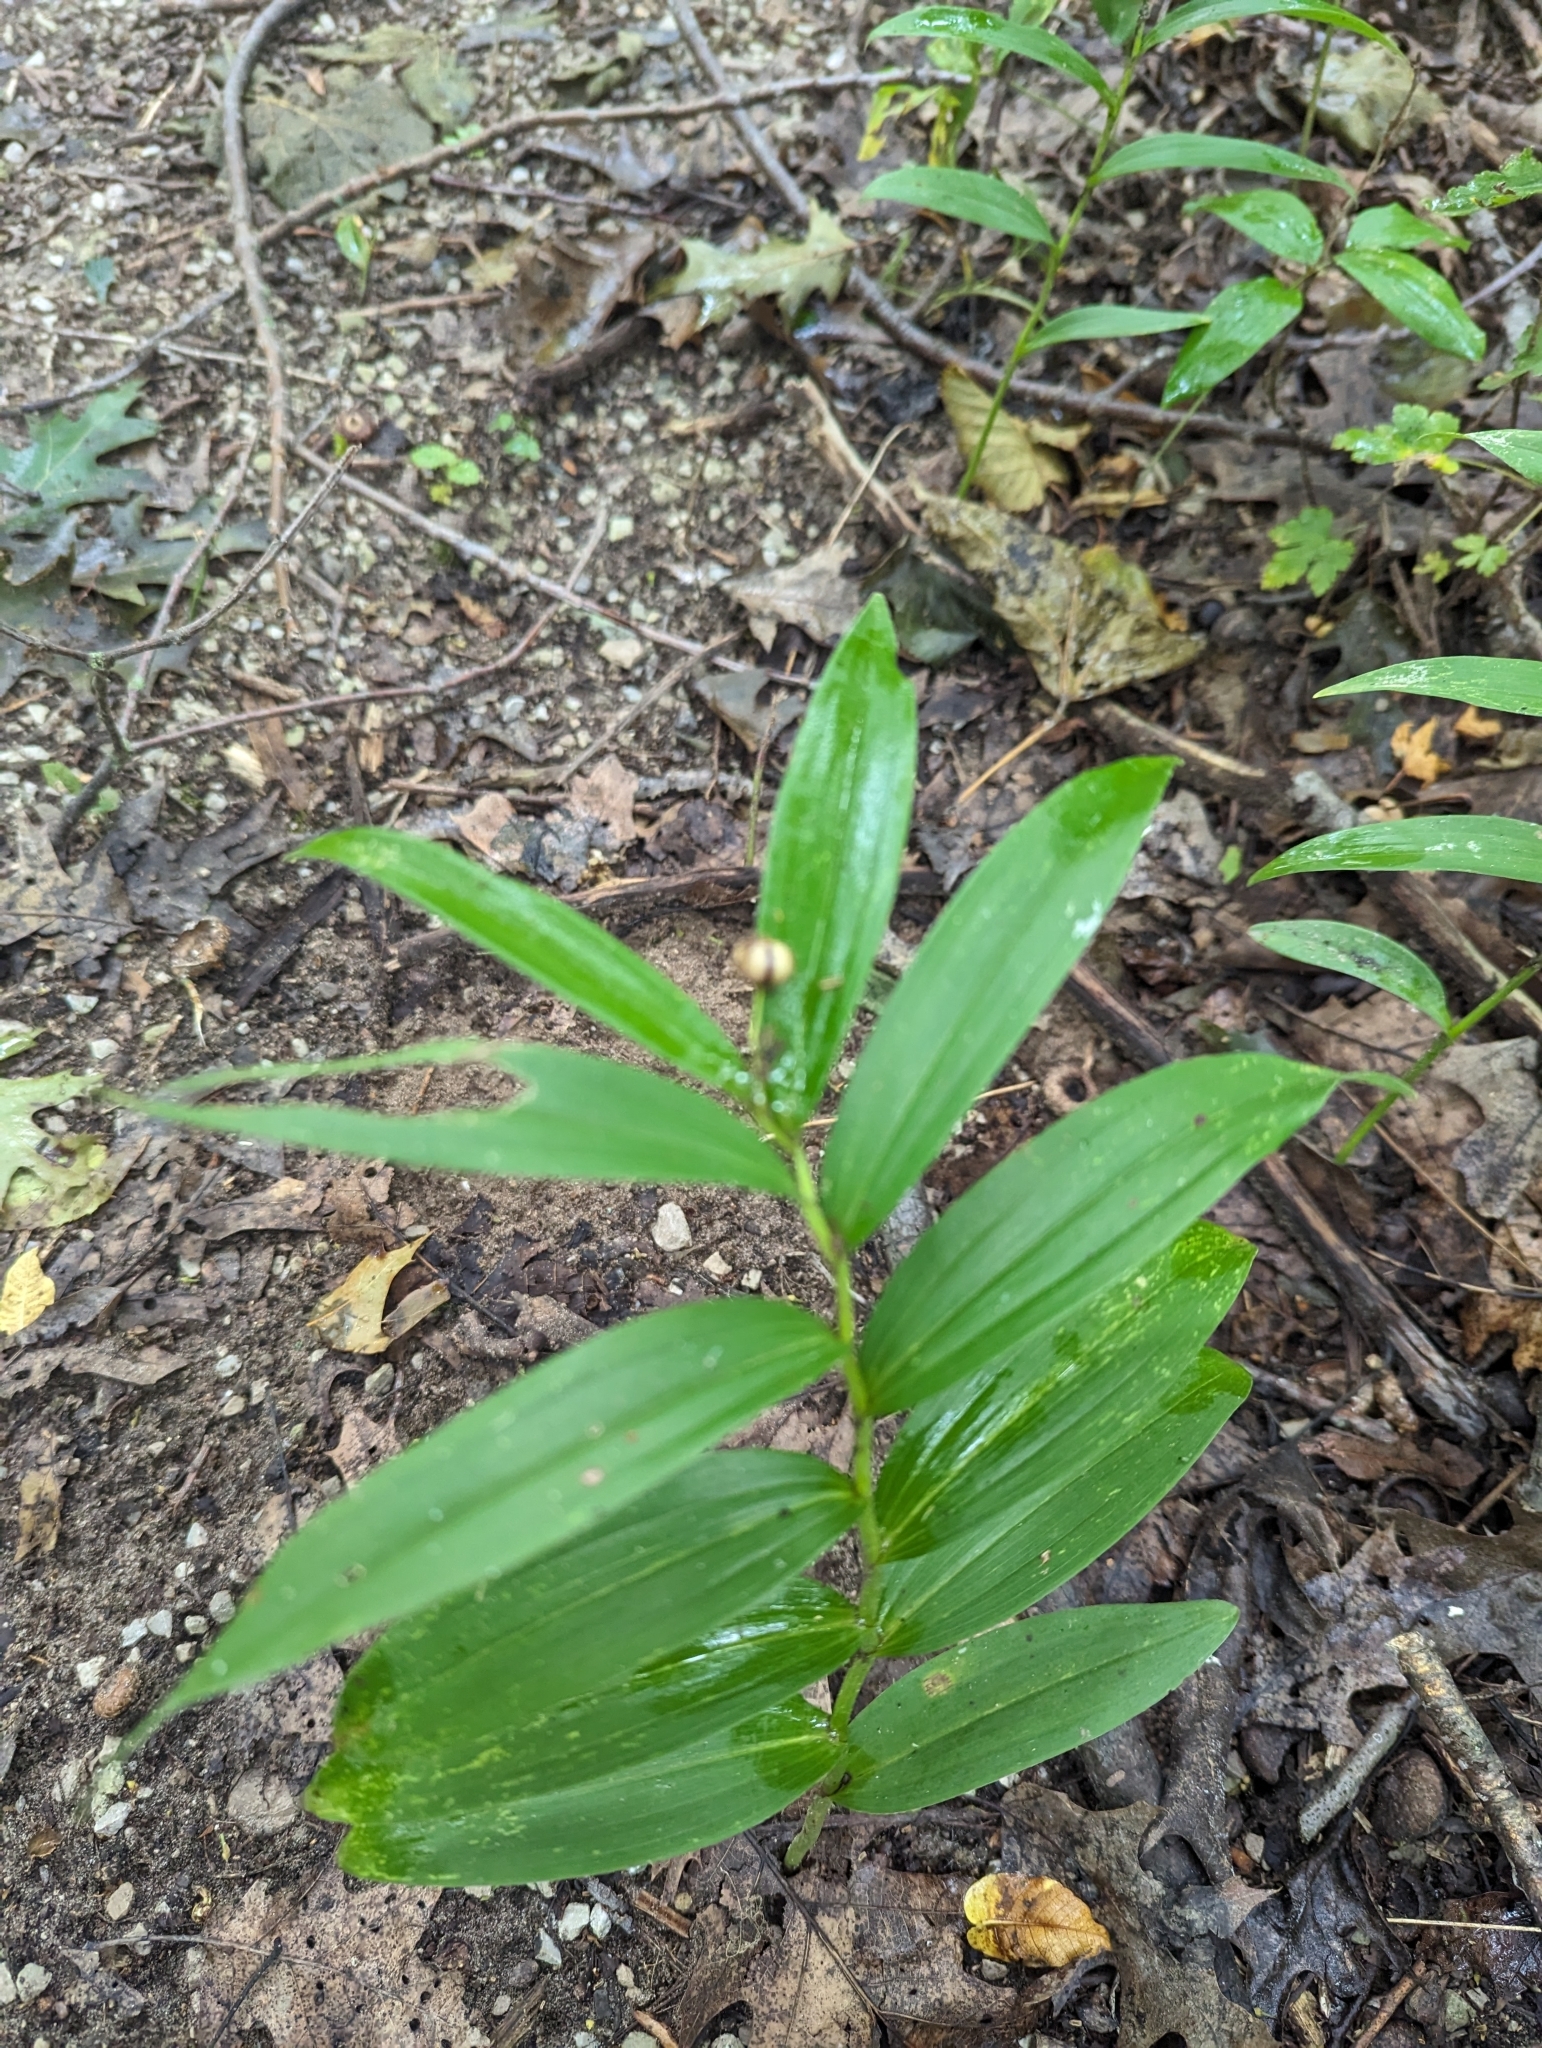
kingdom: Plantae
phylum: Tracheophyta
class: Liliopsida
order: Asparagales
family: Asparagaceae
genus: Maianthemum
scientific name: Maianthemum stellatum
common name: Little false solomon's seal
